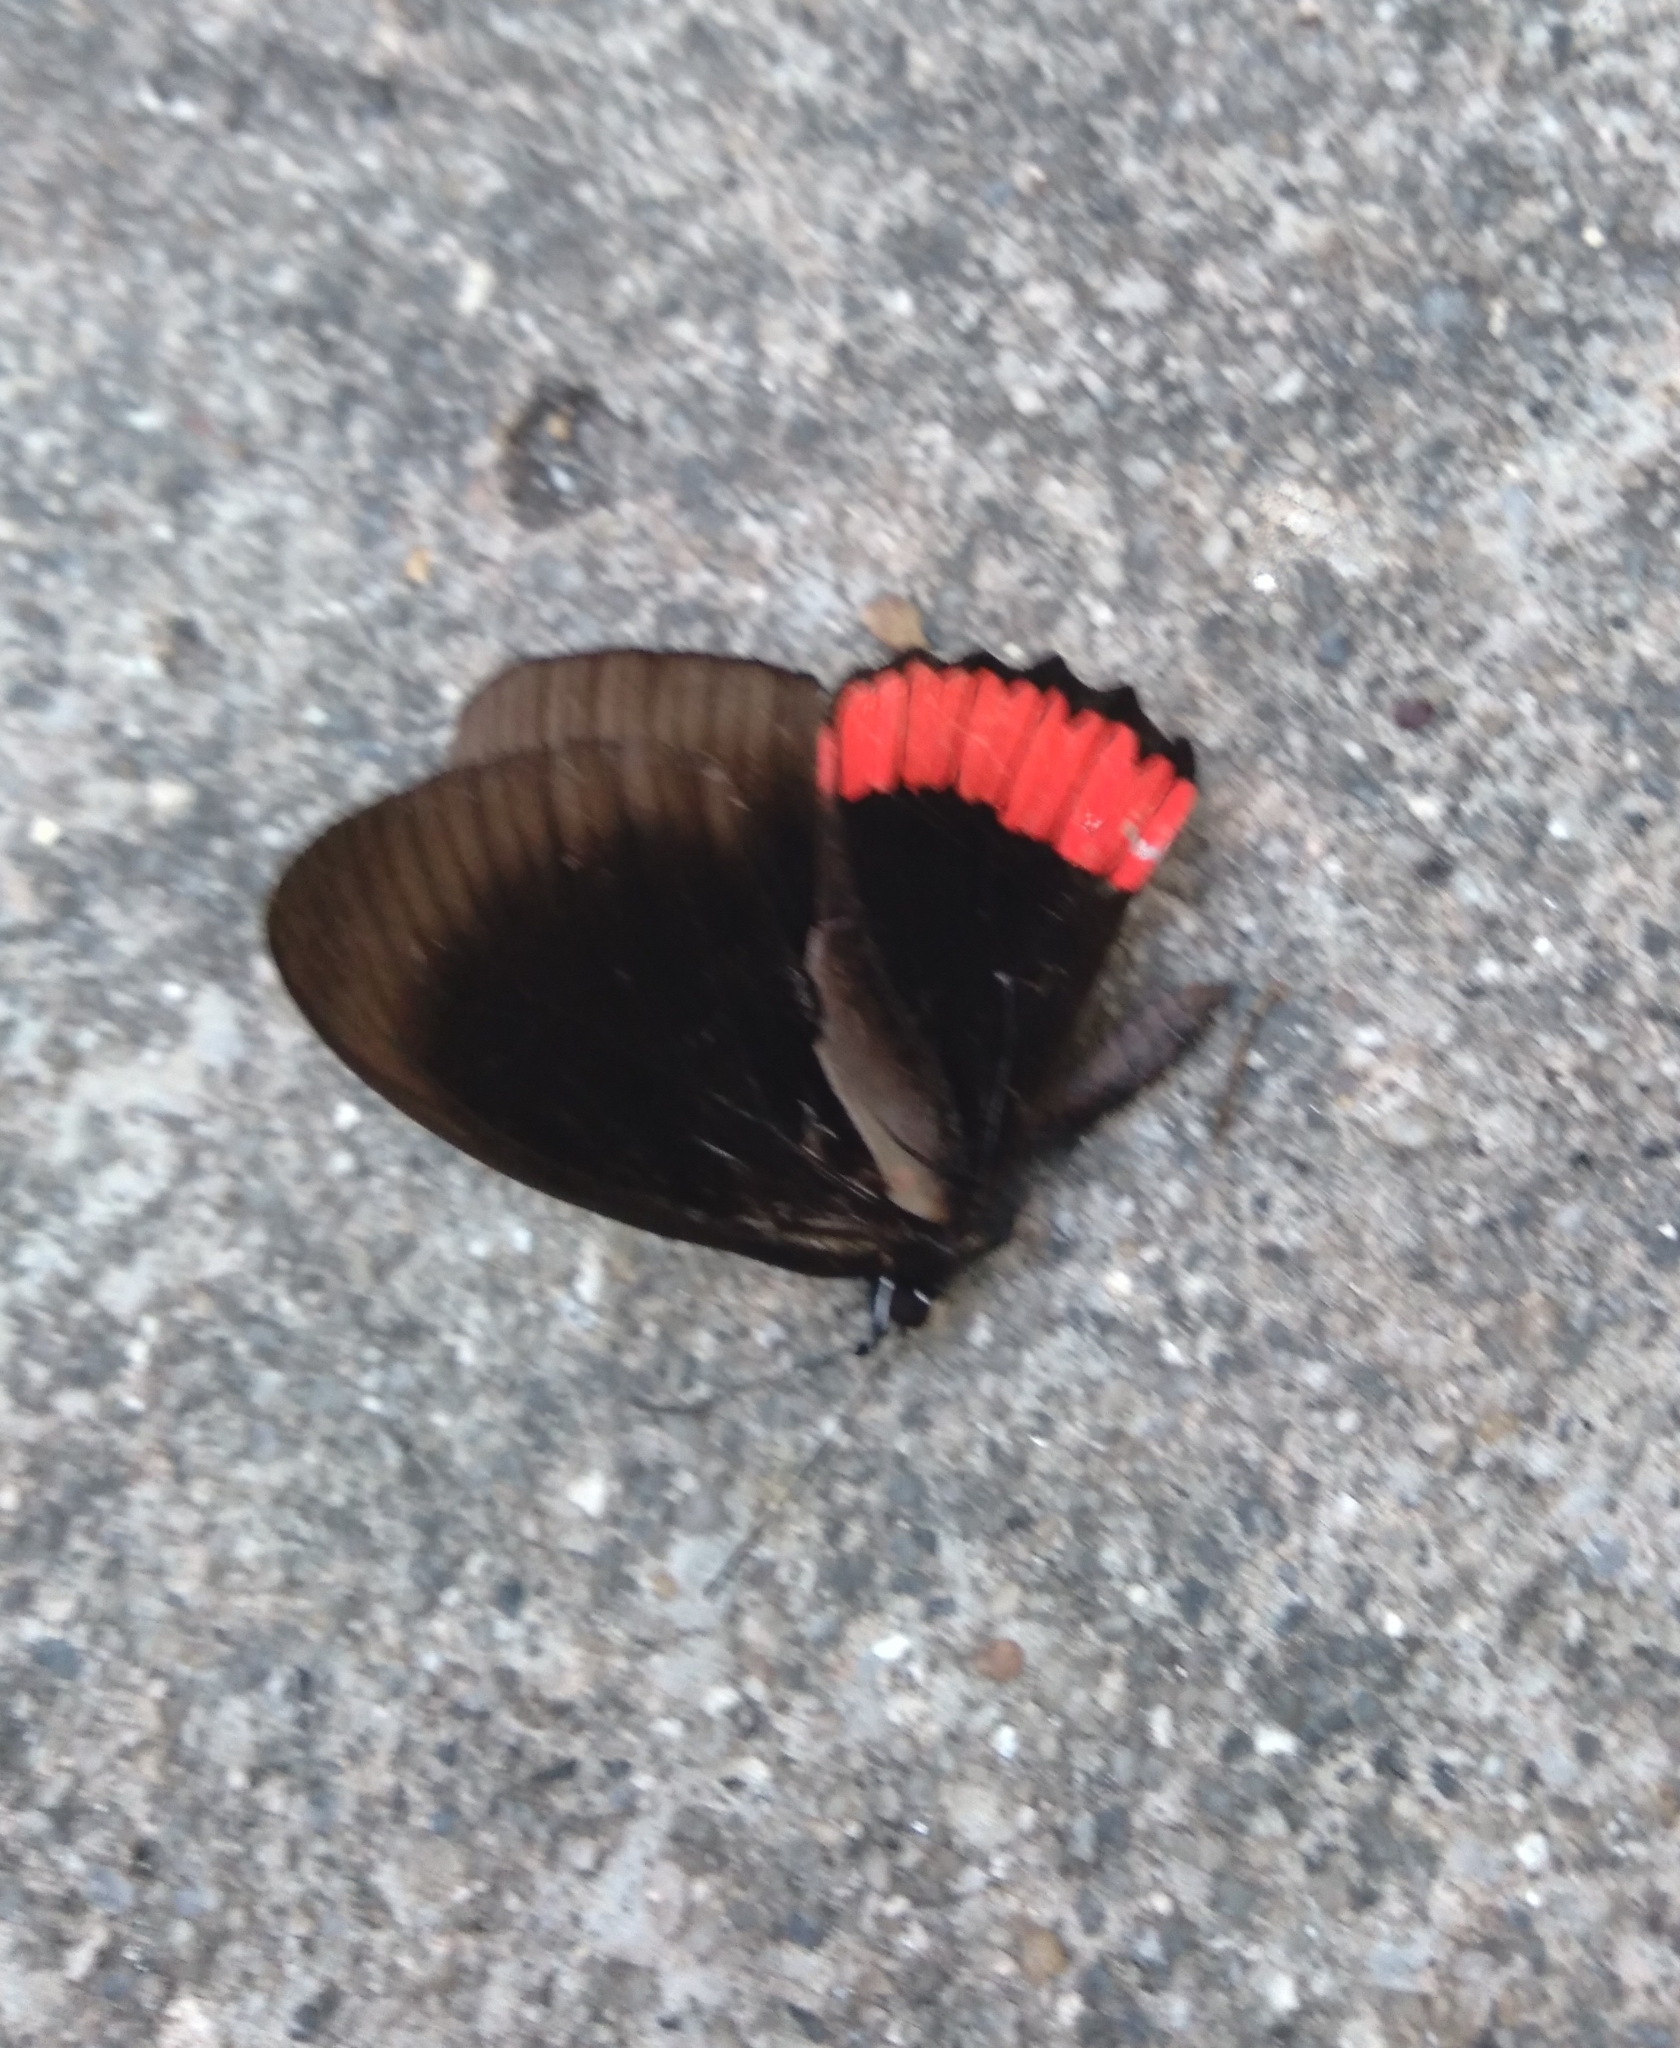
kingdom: Animalia
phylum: Arthropoda
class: Insecta
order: Lepidoptera
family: Sesiidae
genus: Sesia
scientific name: Sesia Biblis hyperia
